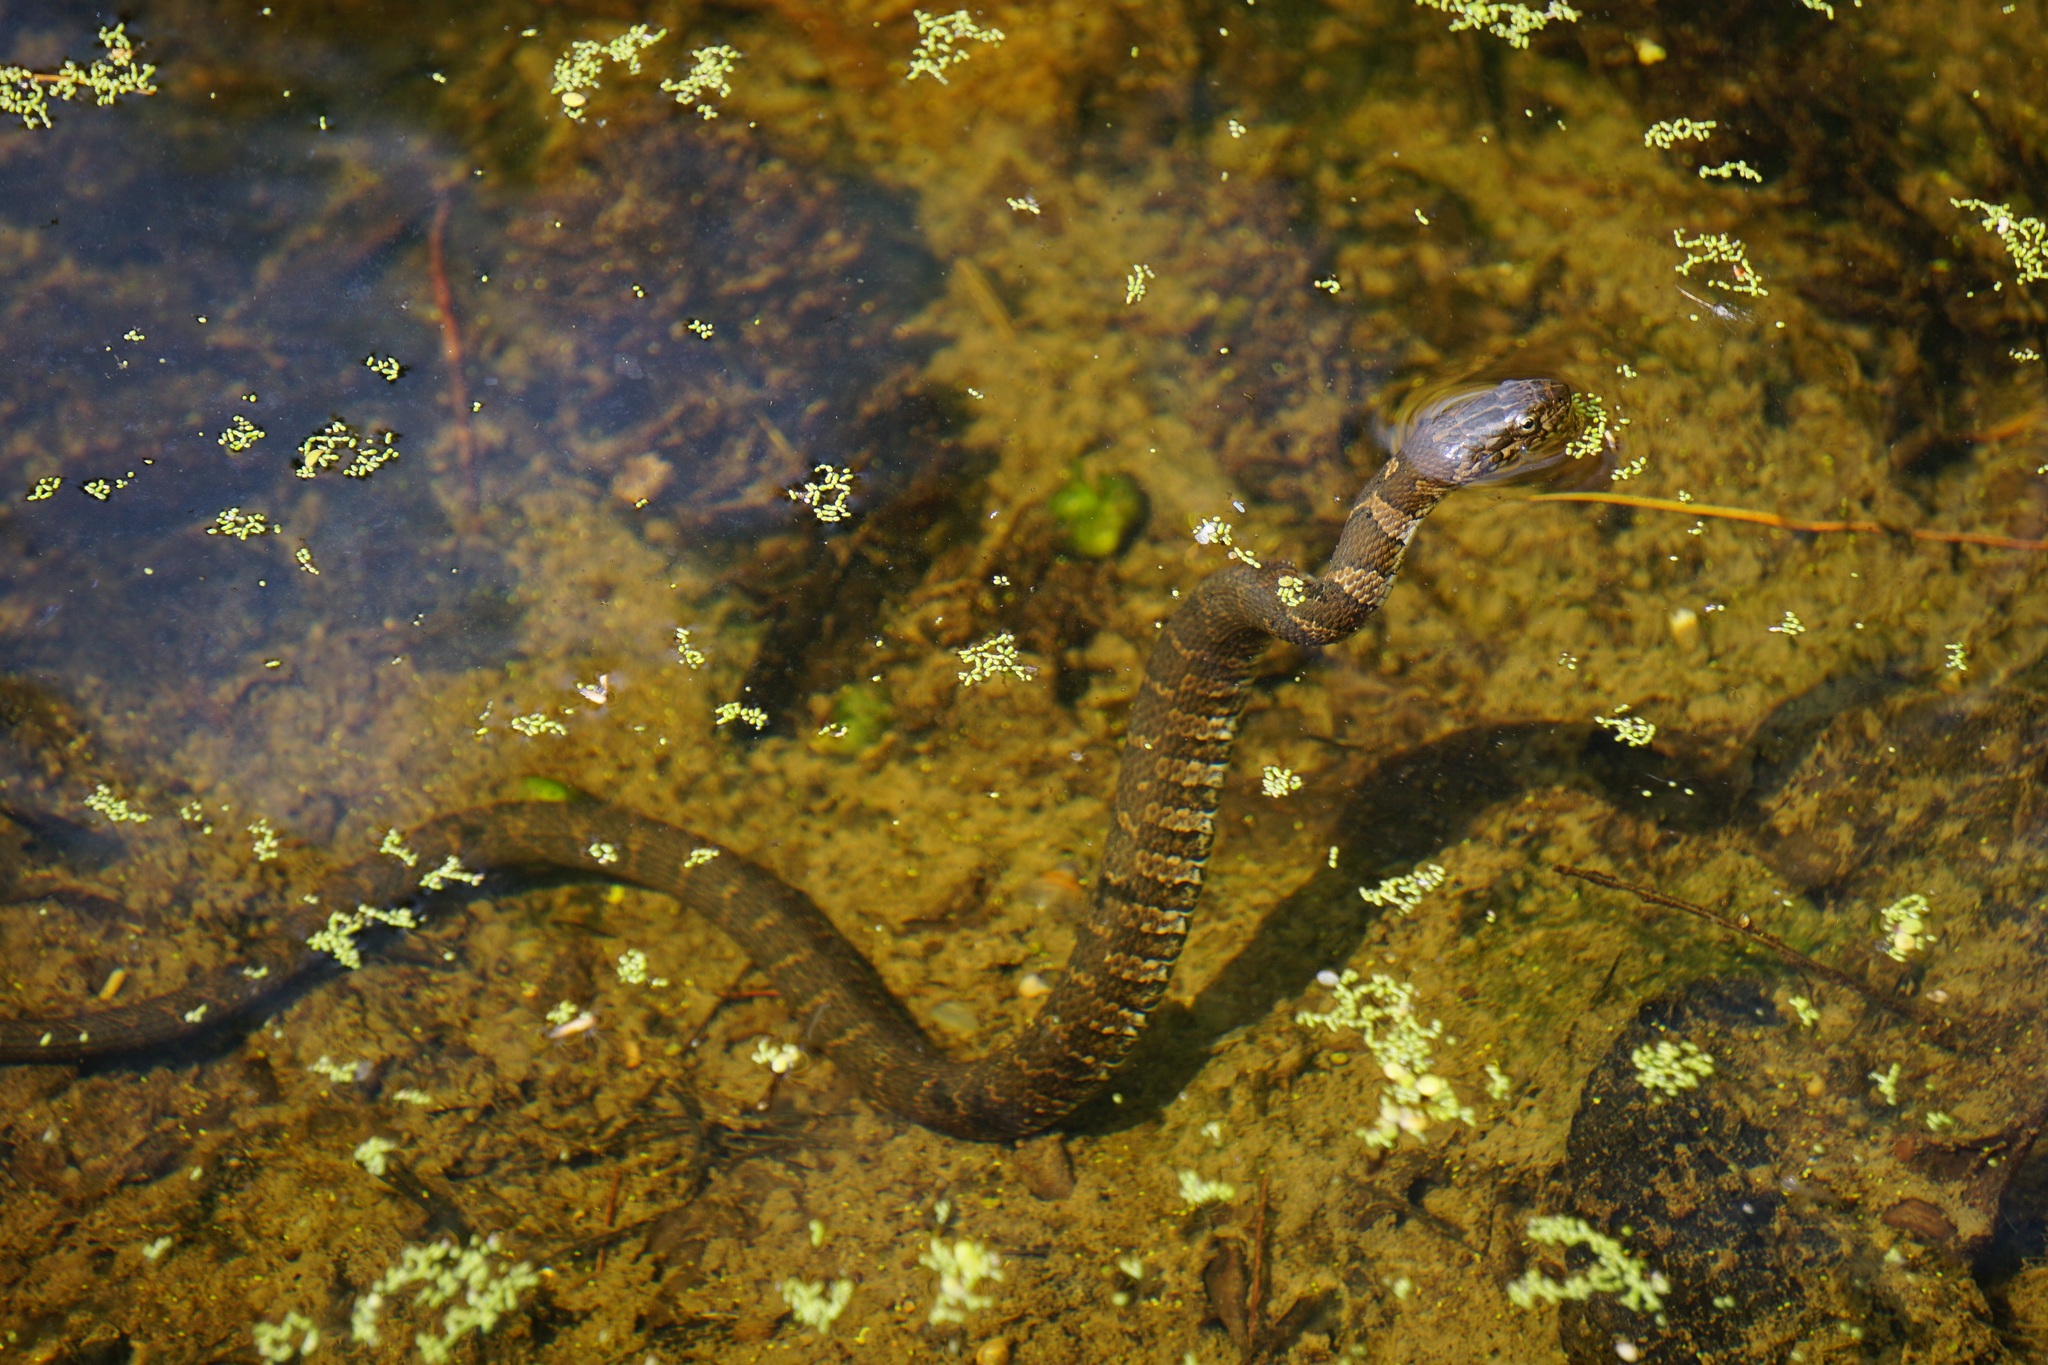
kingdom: Animalia
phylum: Chordata
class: Squamata
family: Colubridae
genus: Nerodia
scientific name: Nerodia sipedon
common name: Northern water snake
